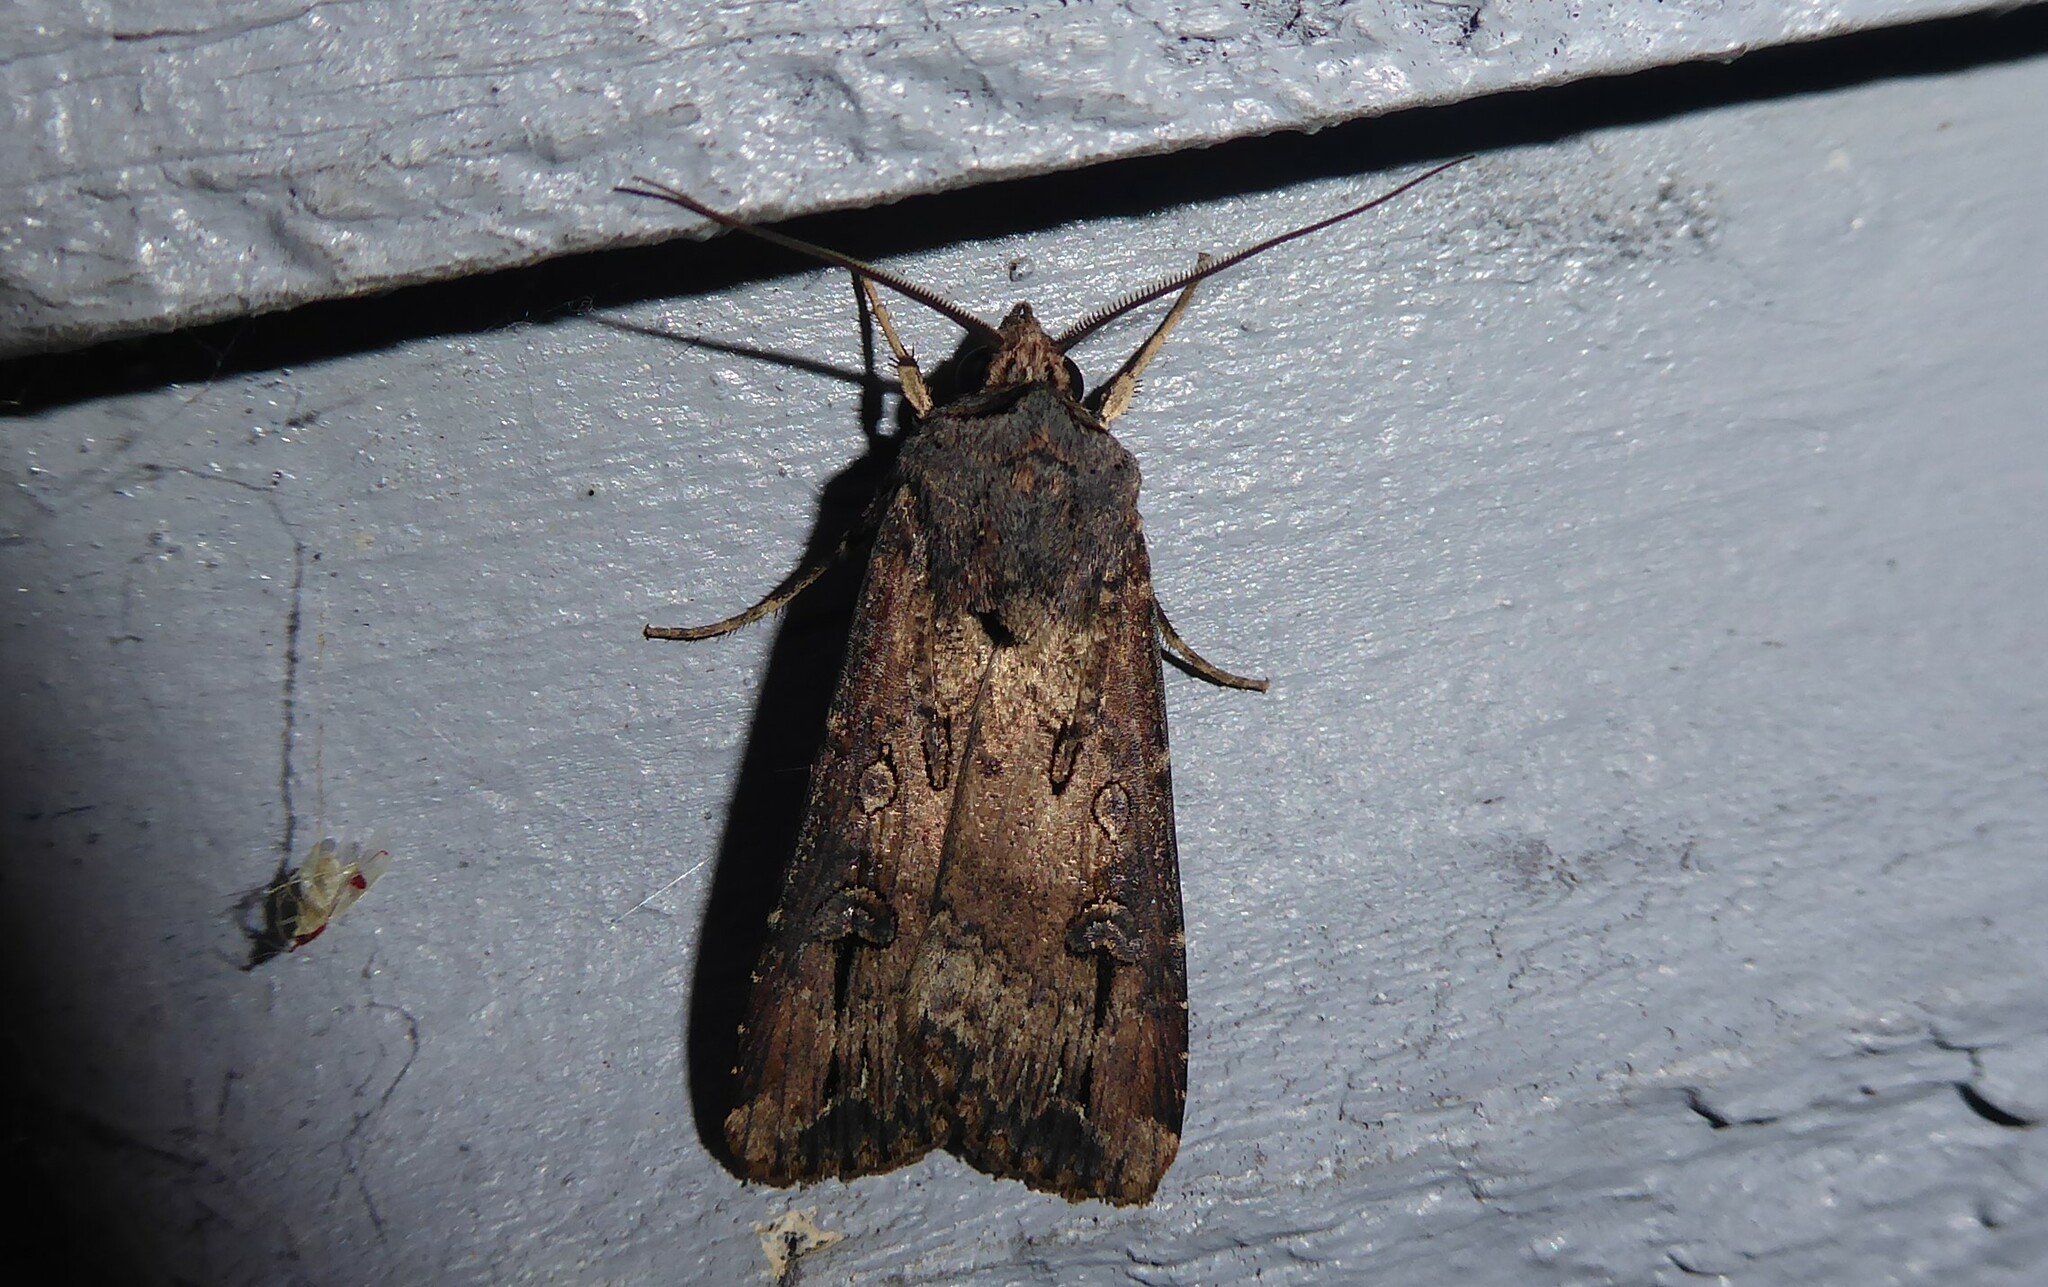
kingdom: Animalia
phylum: Arthropoda
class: Insecta
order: Lepidoptera
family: Noctuidae
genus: Agrotis
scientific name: Agrotis ipsilon
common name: Dark sword-grass
